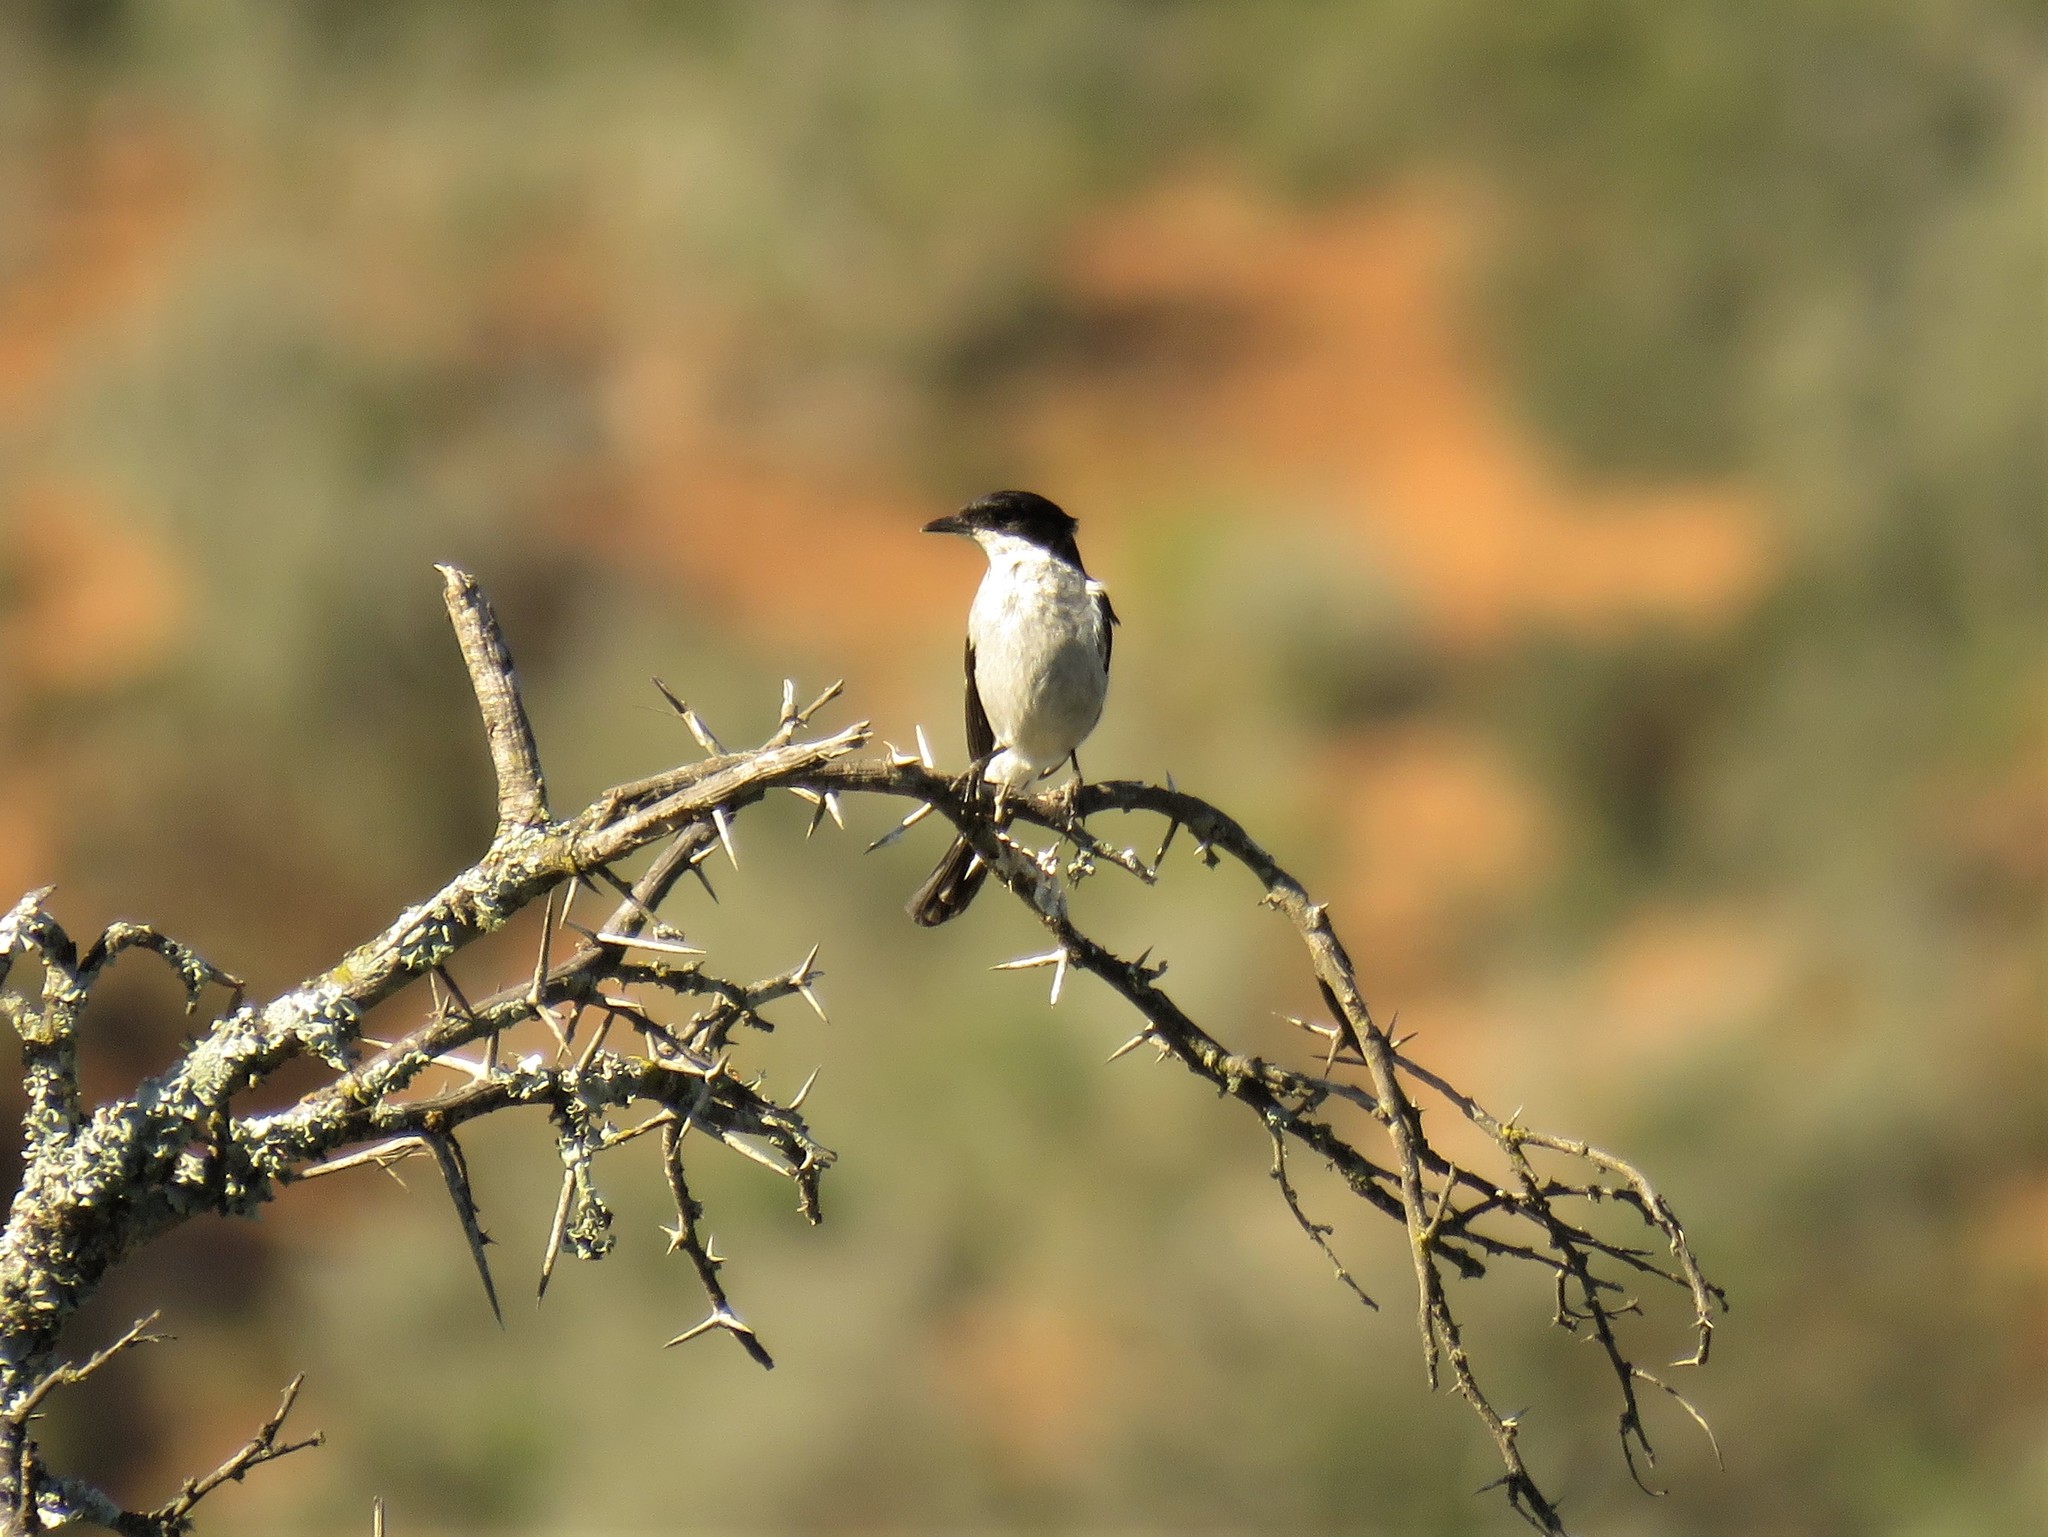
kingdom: Animalia
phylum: Chordata
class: Aves
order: Passeriformes
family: Muscicapidae
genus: Sigelus
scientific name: Sigelus silens
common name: Fiscal flycatcher
